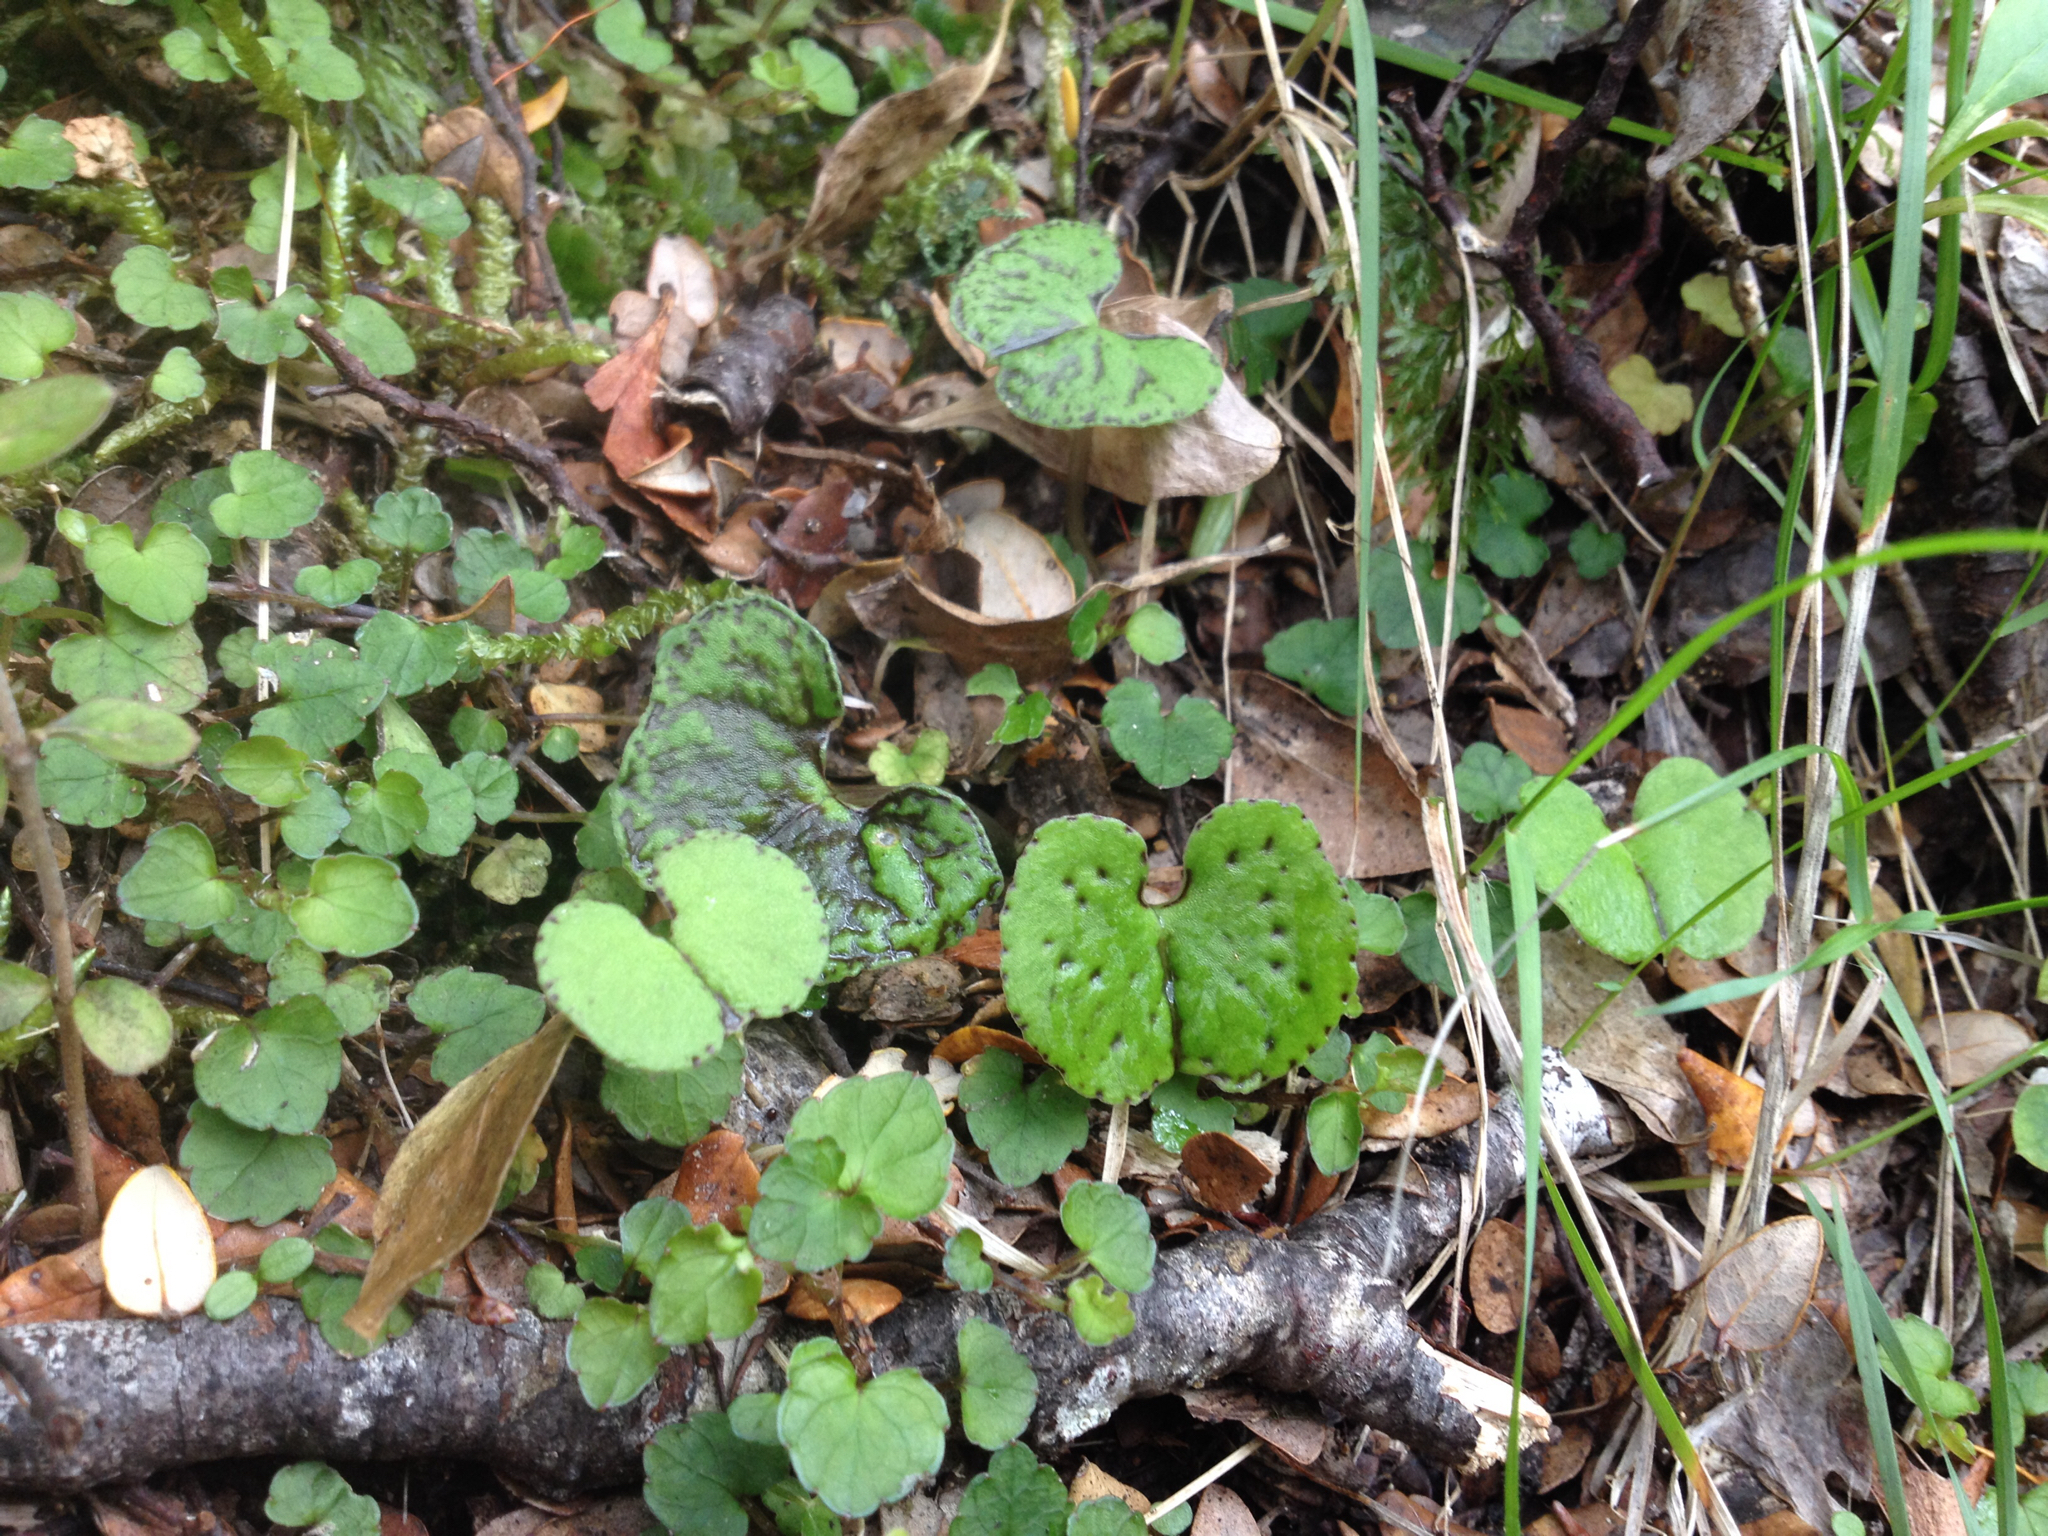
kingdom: Plantae
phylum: Tracheophyta
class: Liliopsida
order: Asparagales
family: Orchidaceae
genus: Corybas
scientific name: Corybas trilobus
